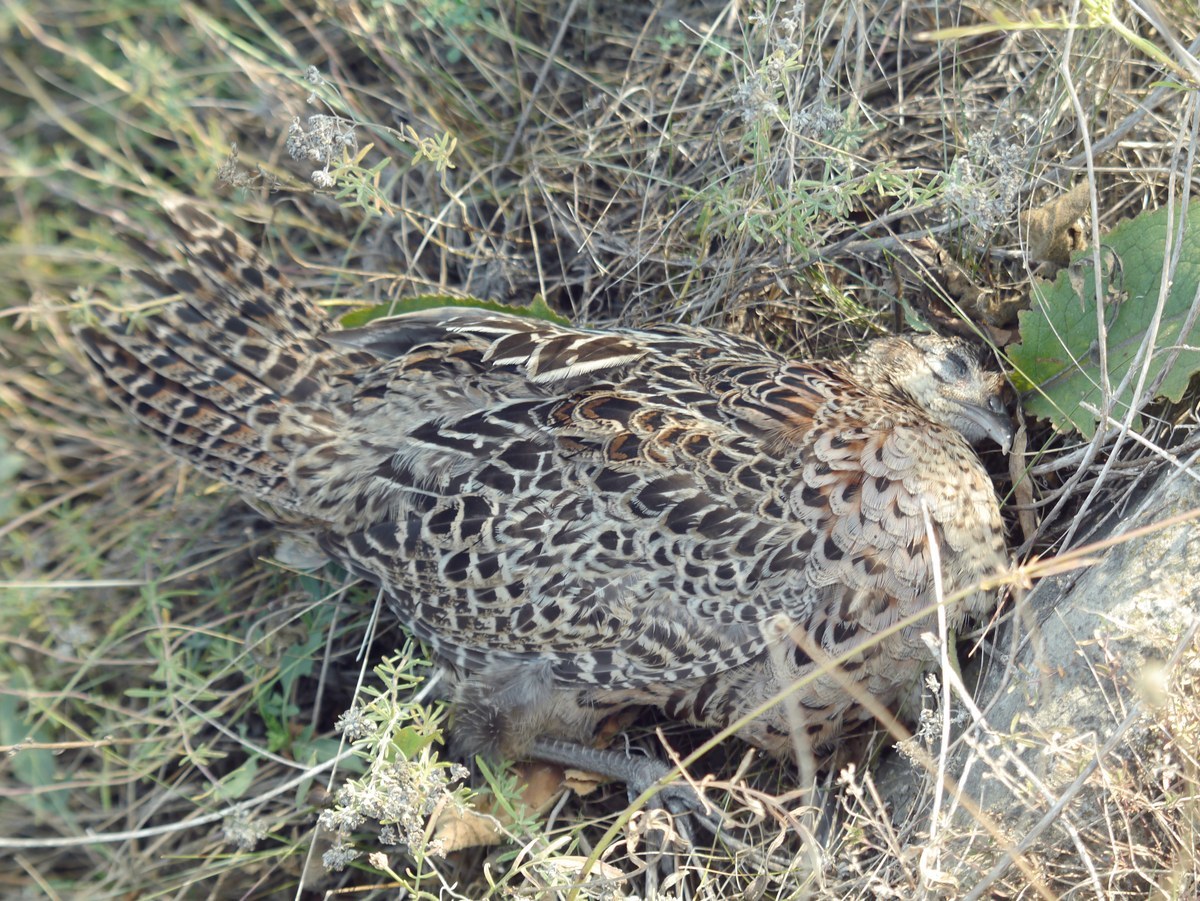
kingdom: Animalia
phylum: Chordata
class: Aves
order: Galliformes
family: Phasianidae
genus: Phasianus
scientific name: Phasianus colchicus
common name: Common pheasant
